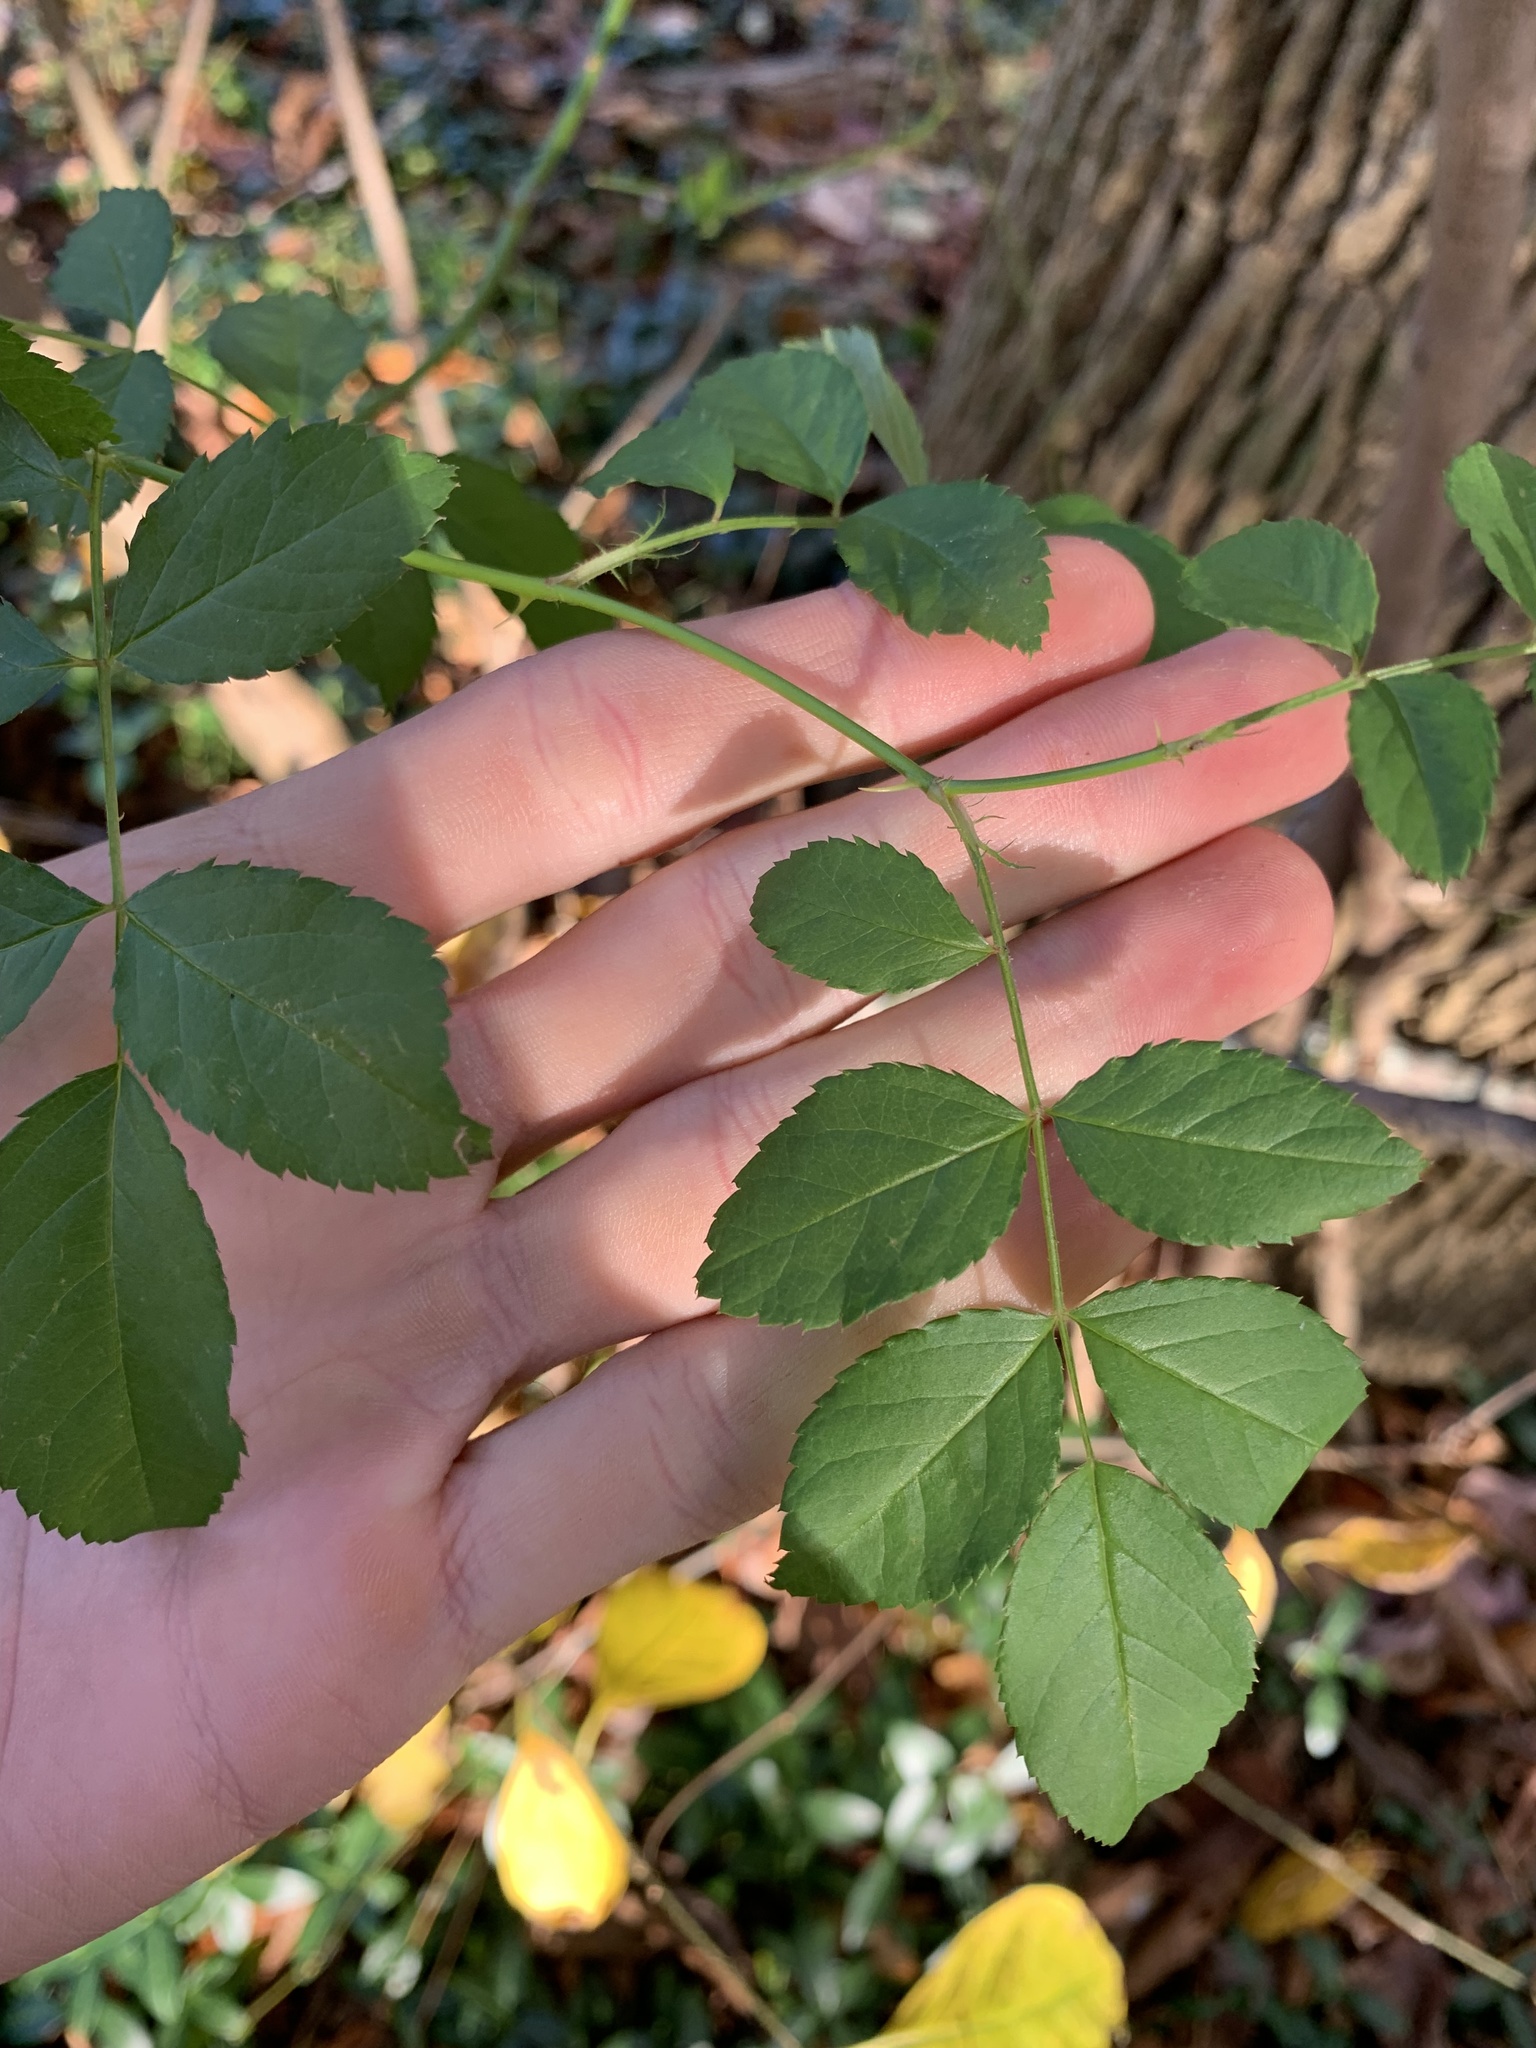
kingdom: Plantae
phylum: Tracheophyta
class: Magnoliopsida
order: Rosales
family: Rosaceae
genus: Rosa
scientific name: Rosa multiflora
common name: Multiflora rose
